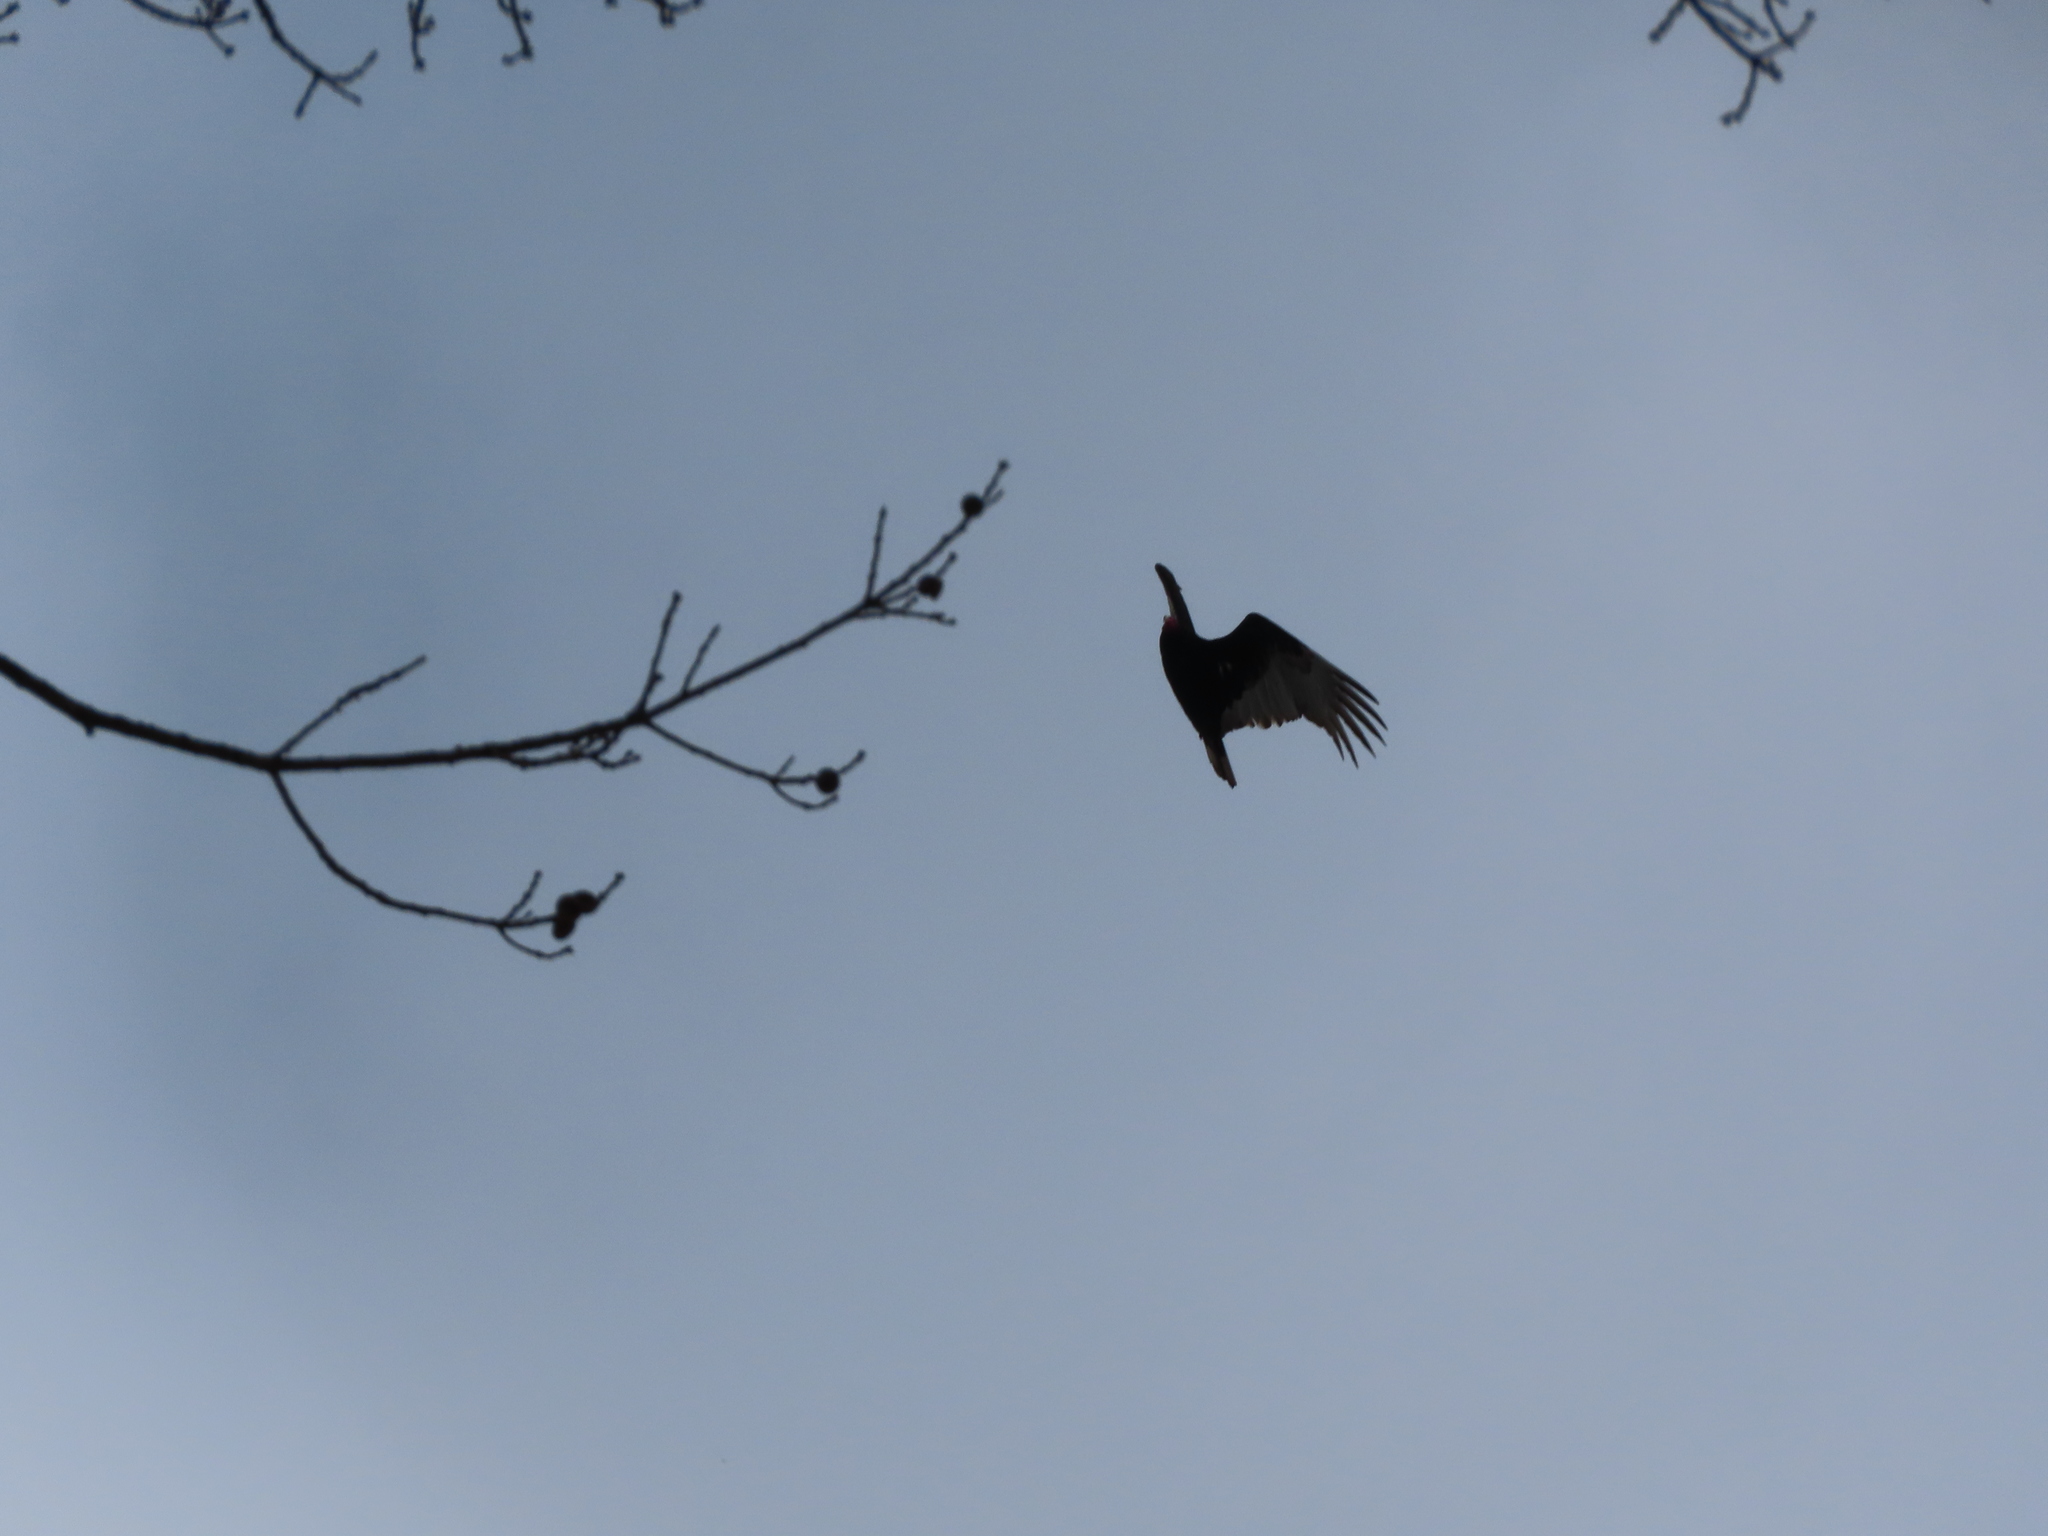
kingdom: Animalia
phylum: Chordata
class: Aves
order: Accipitriformes
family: Cathartidae
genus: Cathartes
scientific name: Cathartes aura
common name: Turkey vulture
